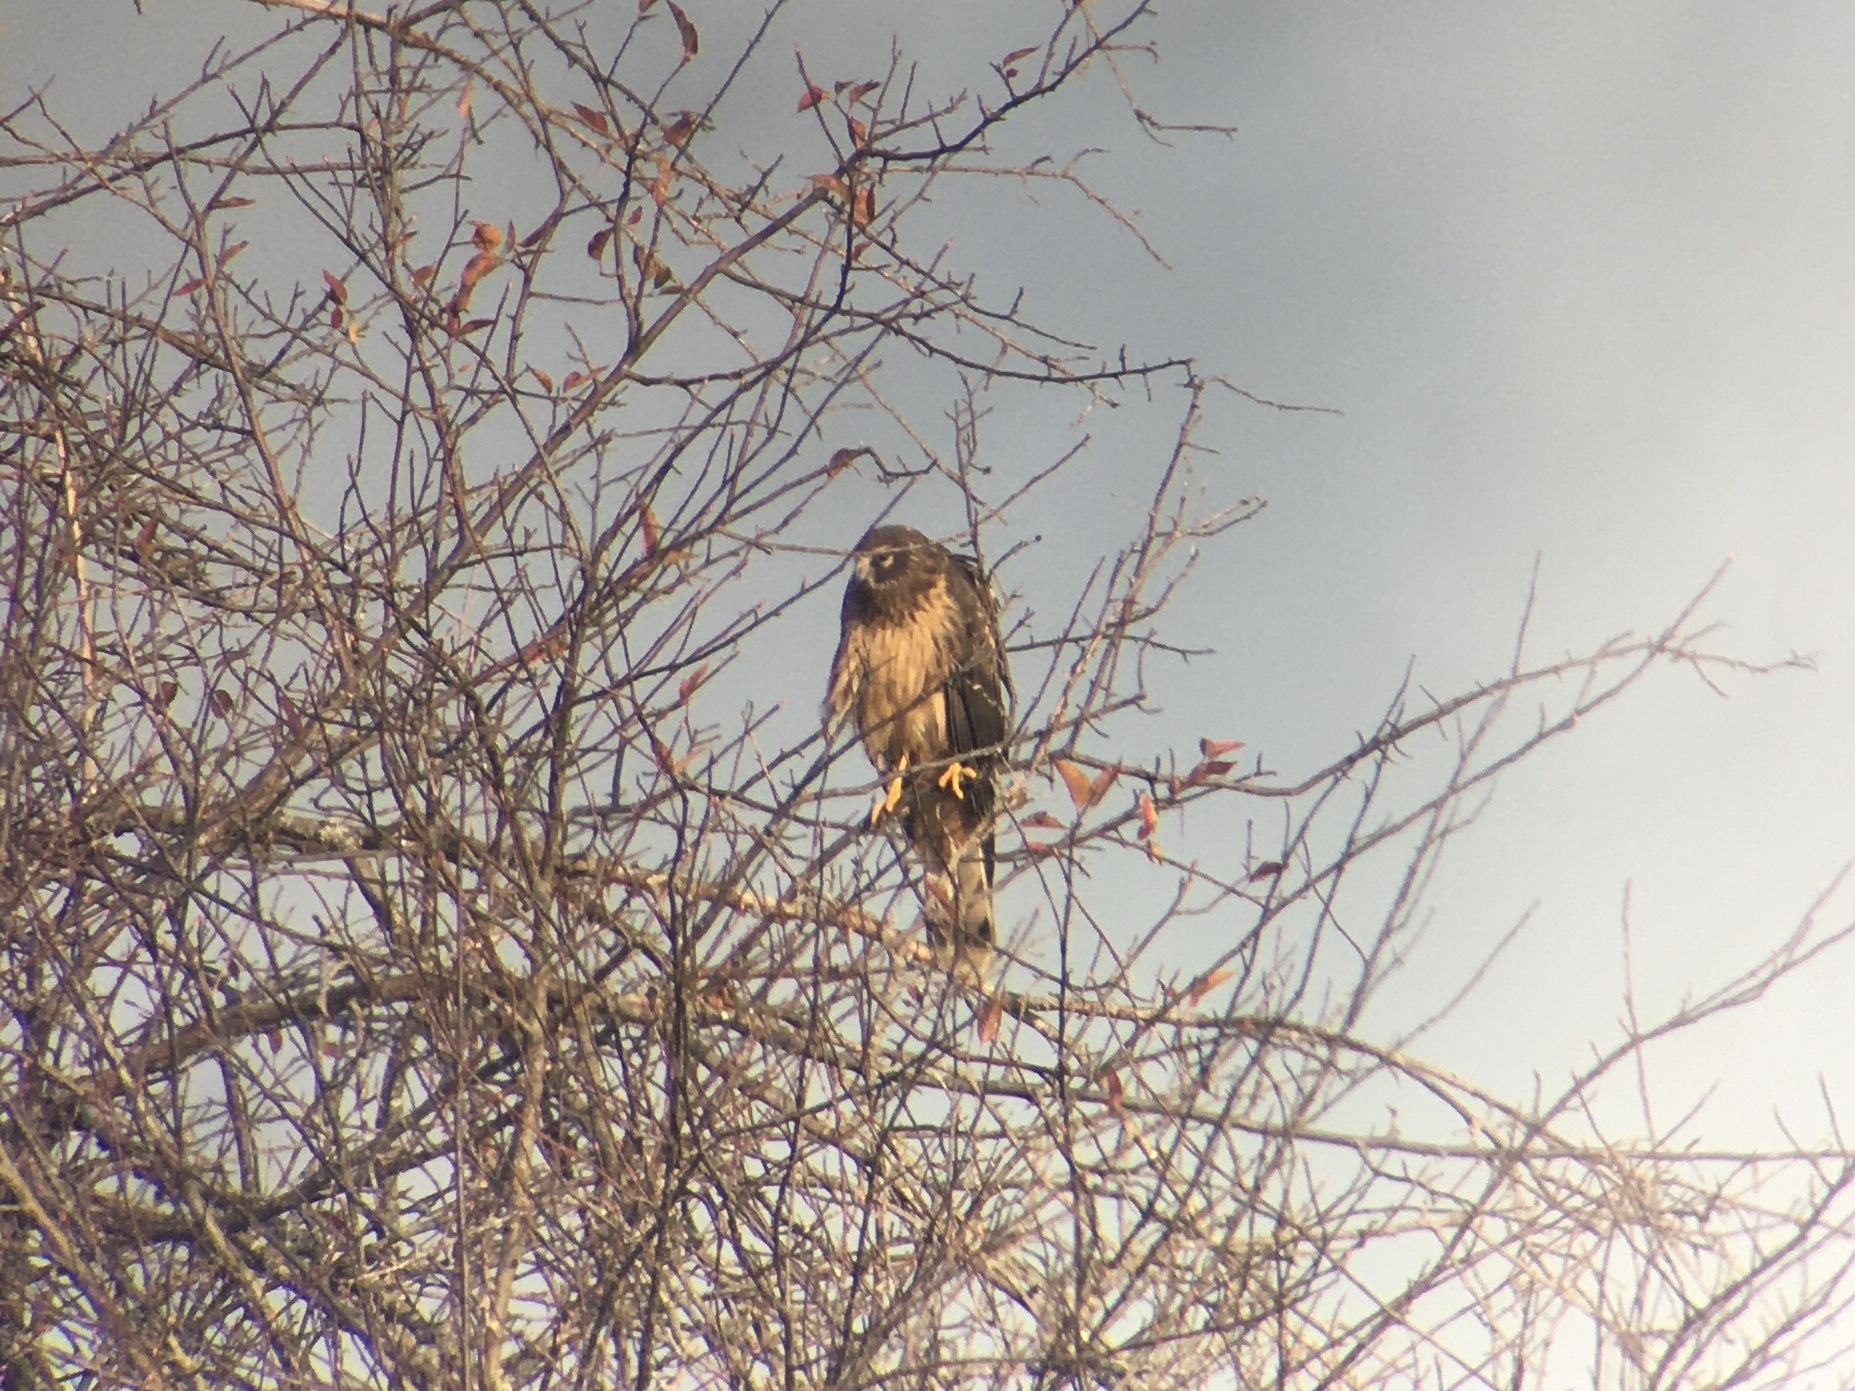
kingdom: Animalia
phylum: Chordata
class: Aves
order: Accipitriformes
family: Accipitridae
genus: Circus
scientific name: Circus cyaneus
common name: Hen harrier
